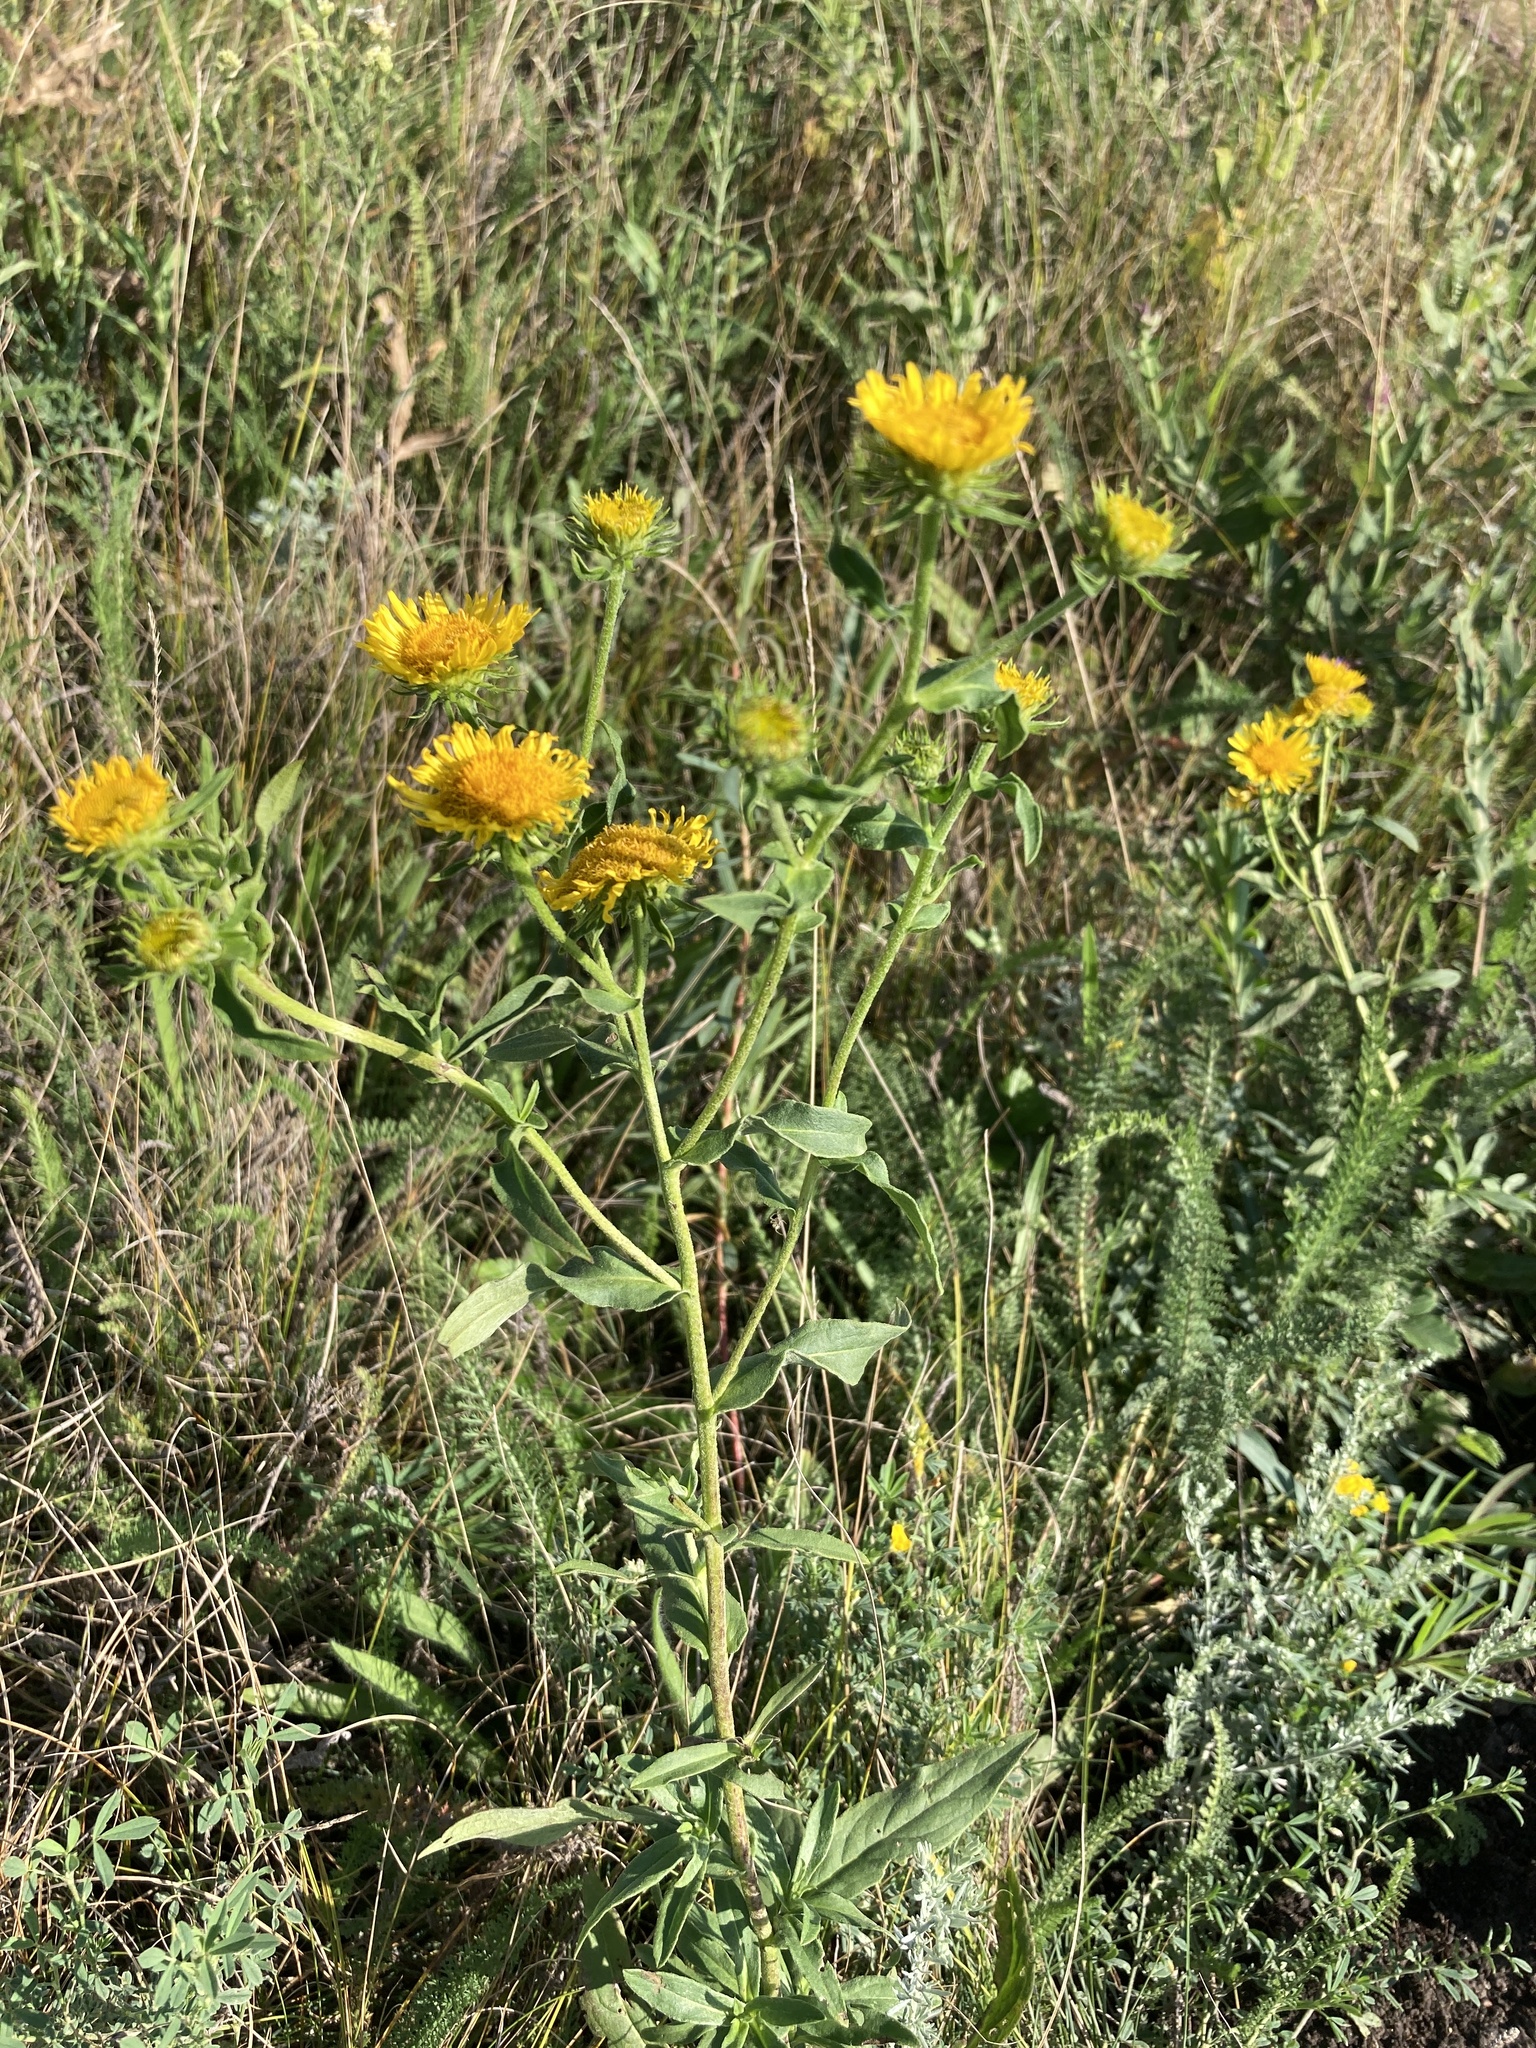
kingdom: Plantae
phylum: Tracheophyta
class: Magnoliopsida
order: Asterales
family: Asteraceae
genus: Pentanema
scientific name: Pentanema britannicum
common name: British elecampane
